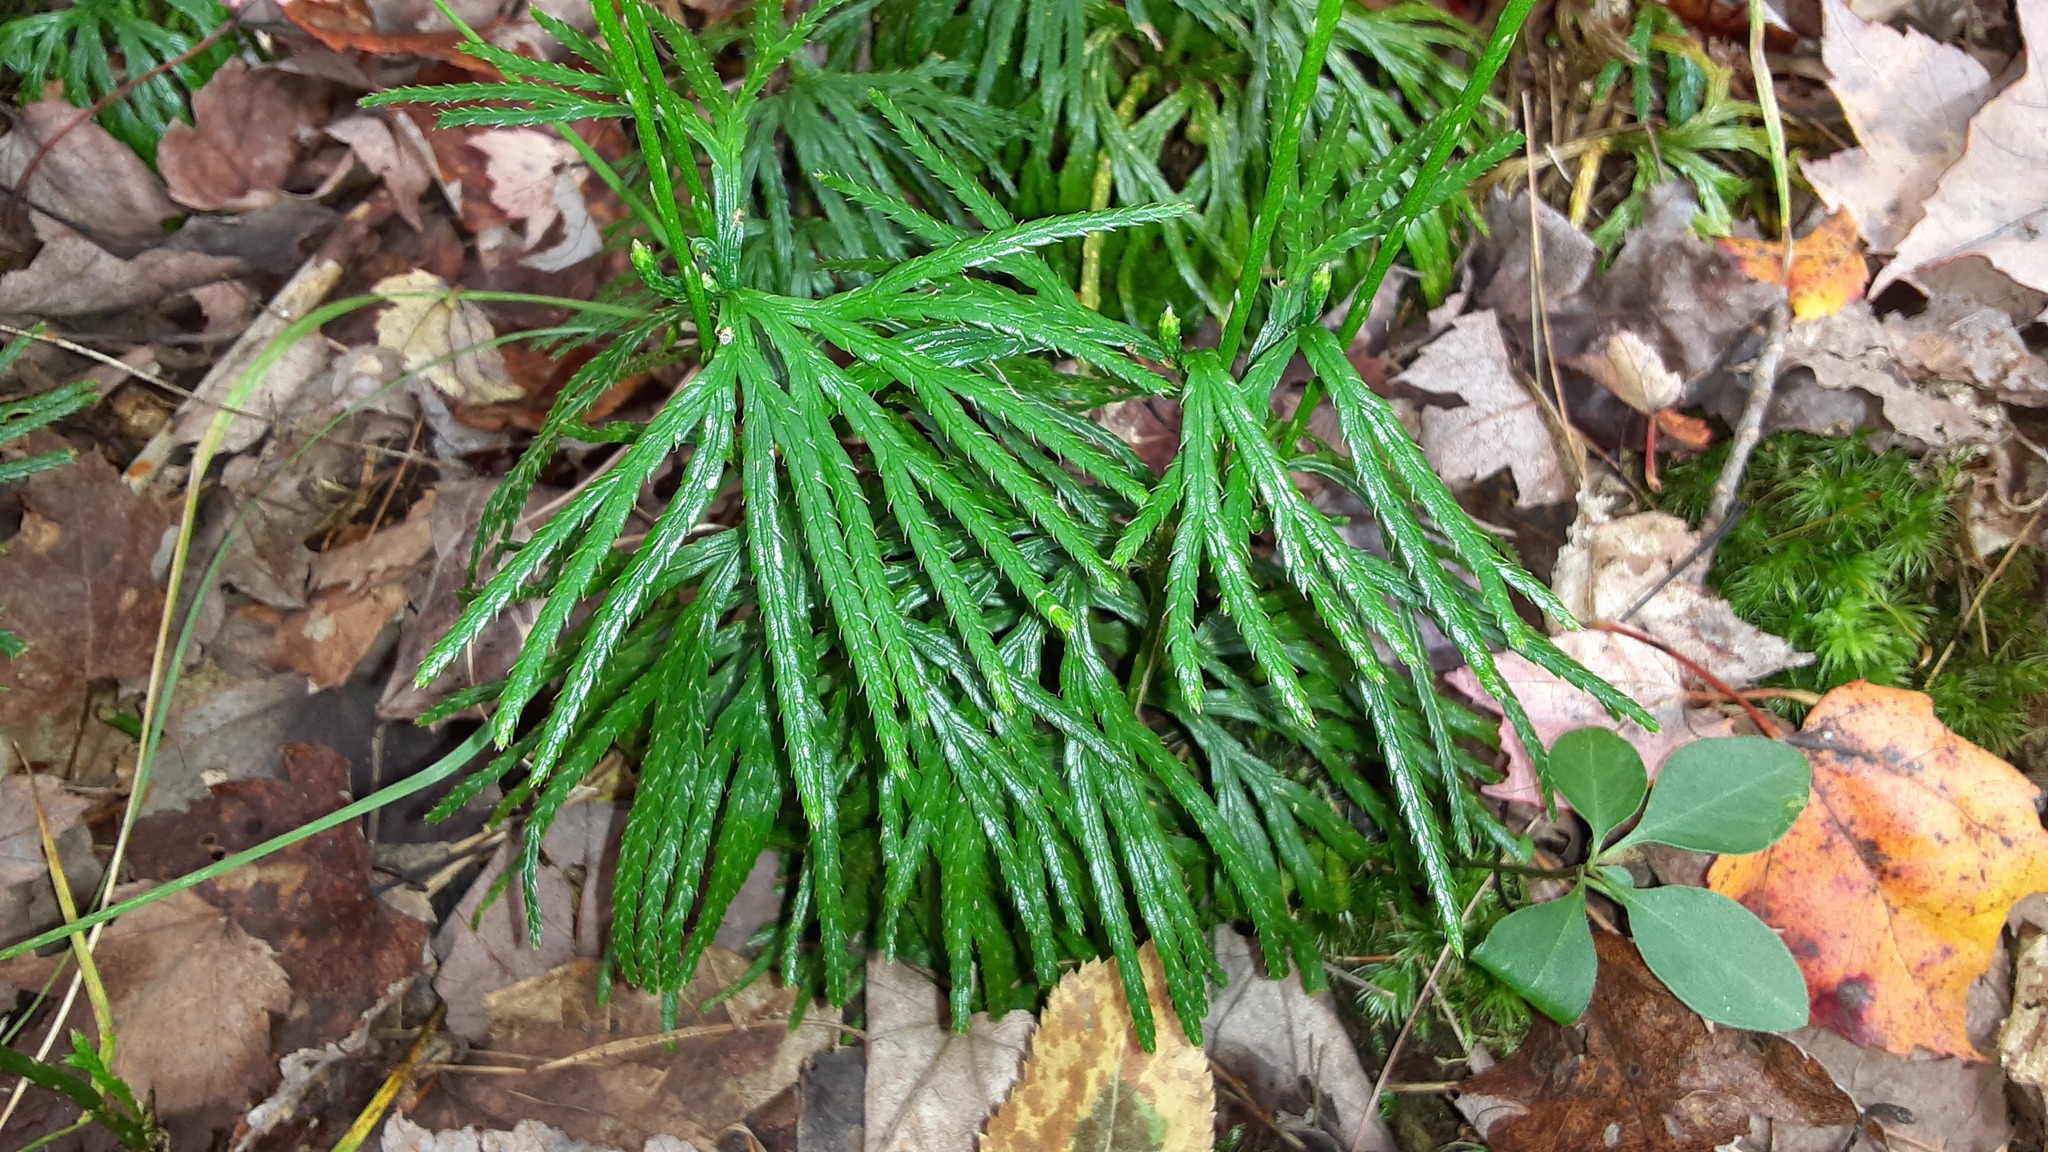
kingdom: Plantae
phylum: Tracheophyta
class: Lycopodiopsida
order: Lycopodiales
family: Lycopodiaceae
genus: Diphasiastrum
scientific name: Diphasiastrum digitatum
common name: Southern running-pine
